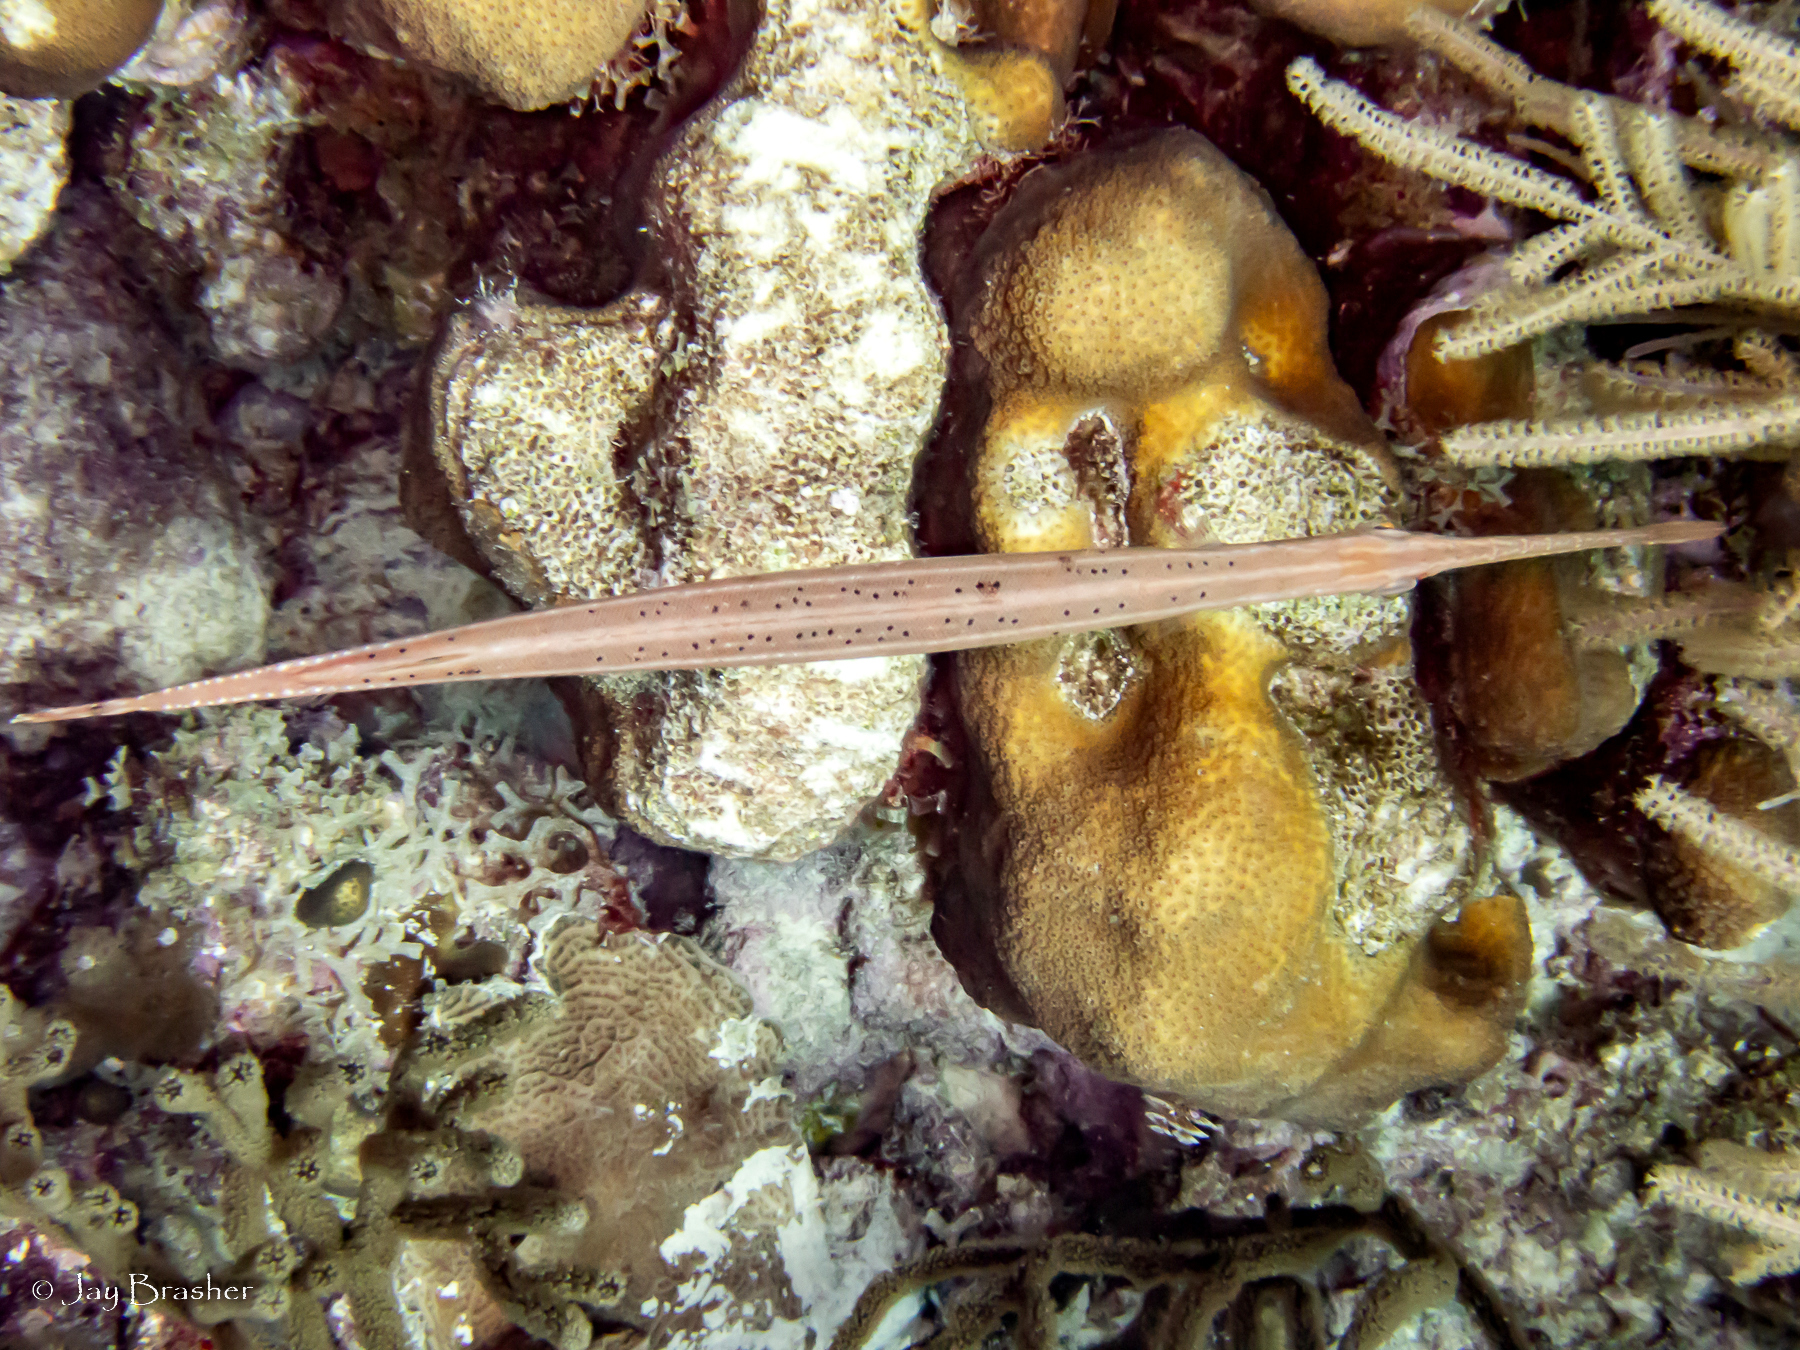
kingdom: Animalia
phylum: Chordata
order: Syngnathiformes
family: Aulostomidae
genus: Aulostomus
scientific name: Aulostomus maculatus
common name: West atlantic trumpetfish
